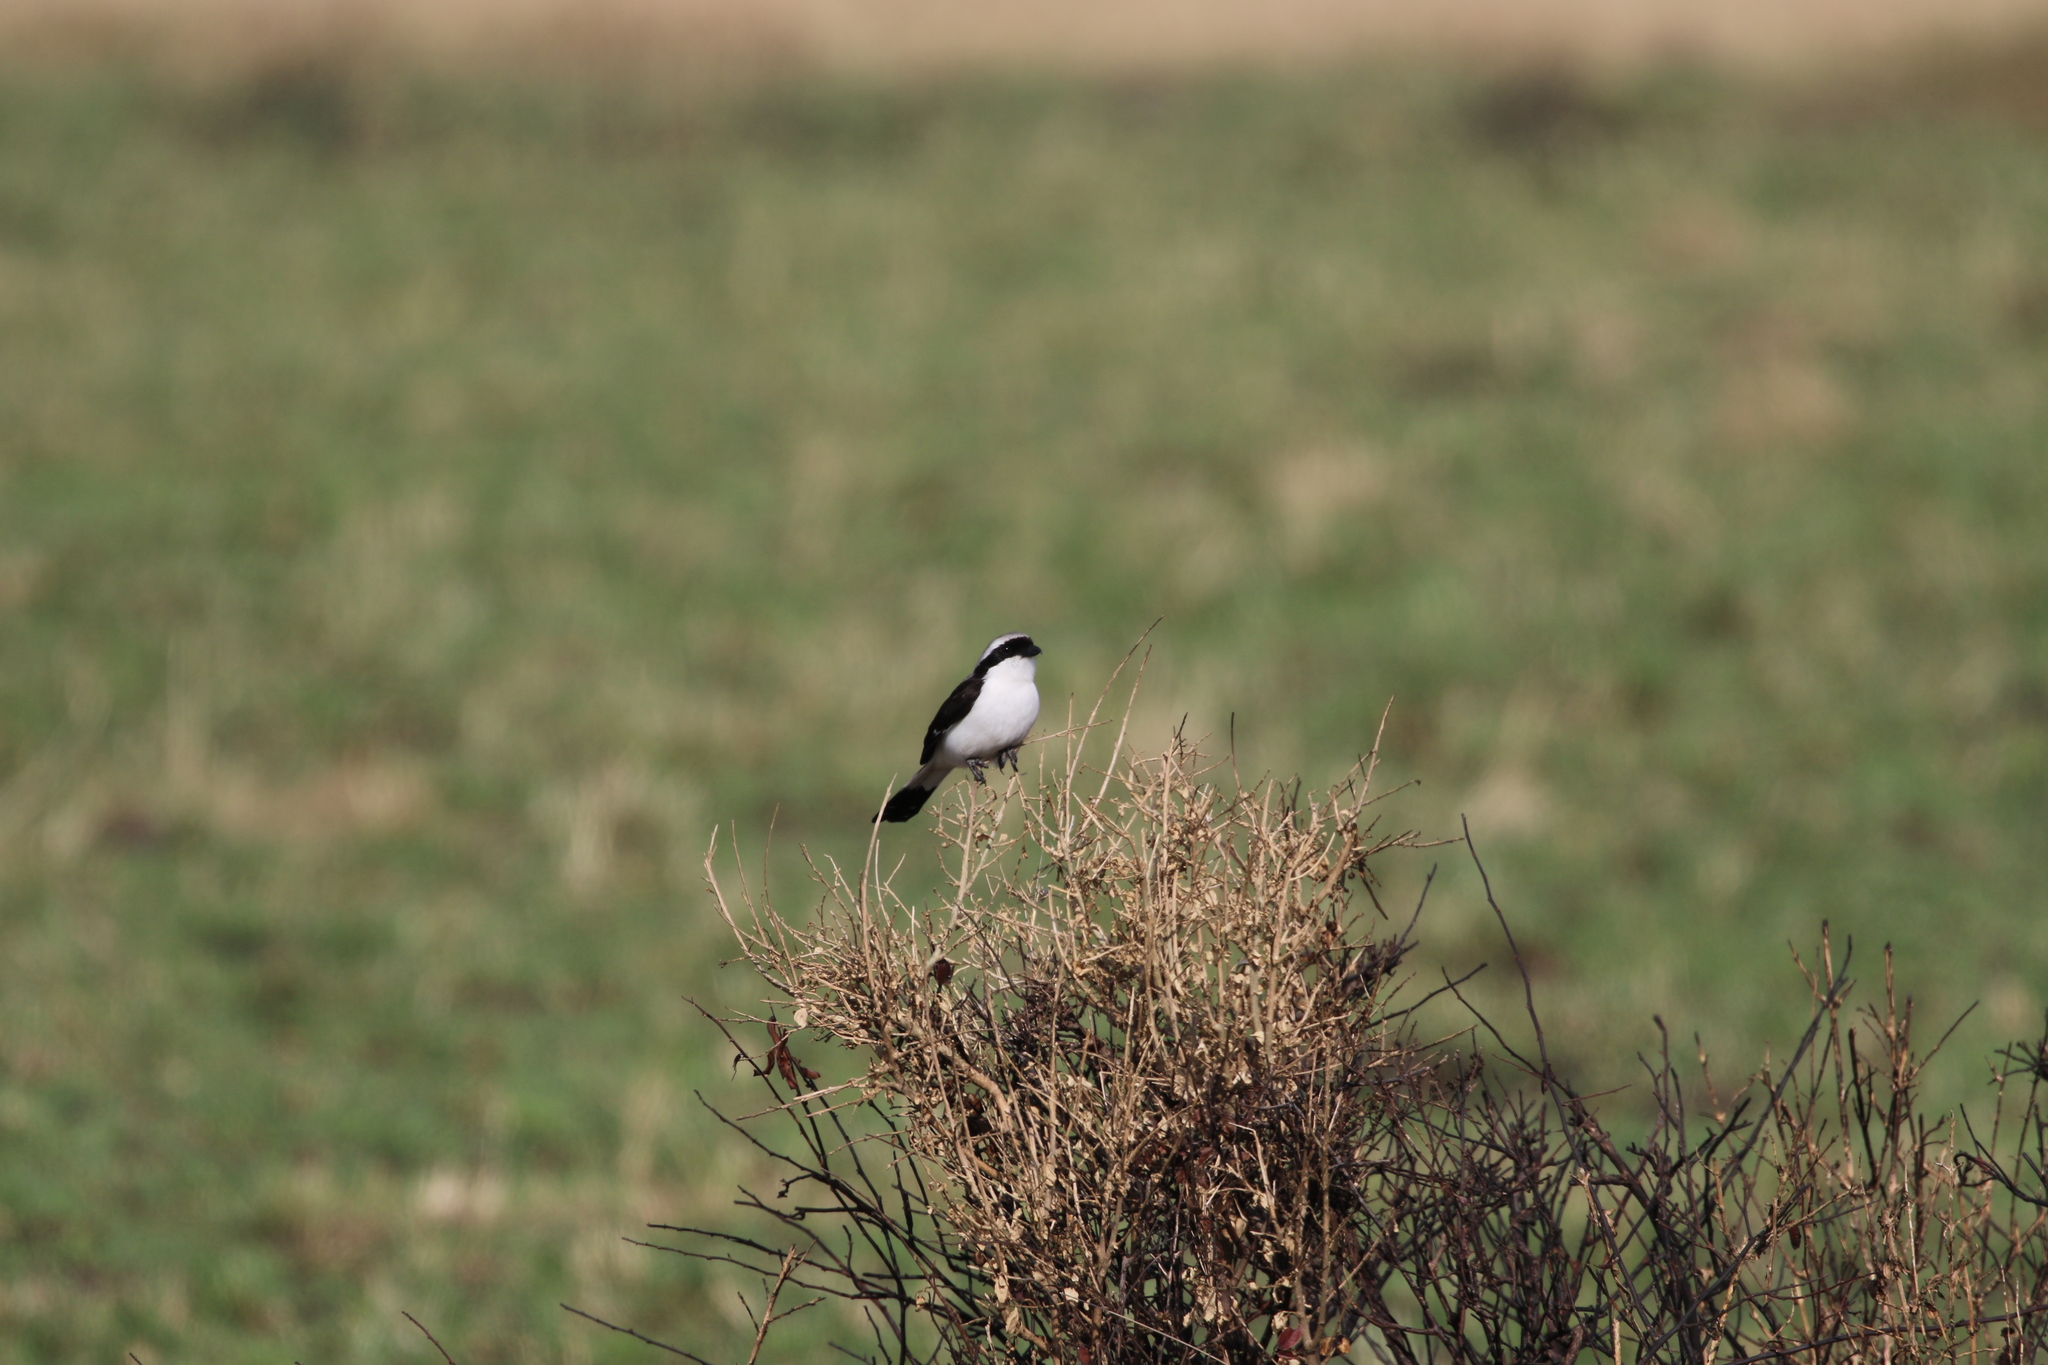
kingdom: Animalia
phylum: Chordata
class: Aves
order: Passeriformes
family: Laniidae
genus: Lanius
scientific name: Lanius excubitoroides
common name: Grey-backed fiscal
